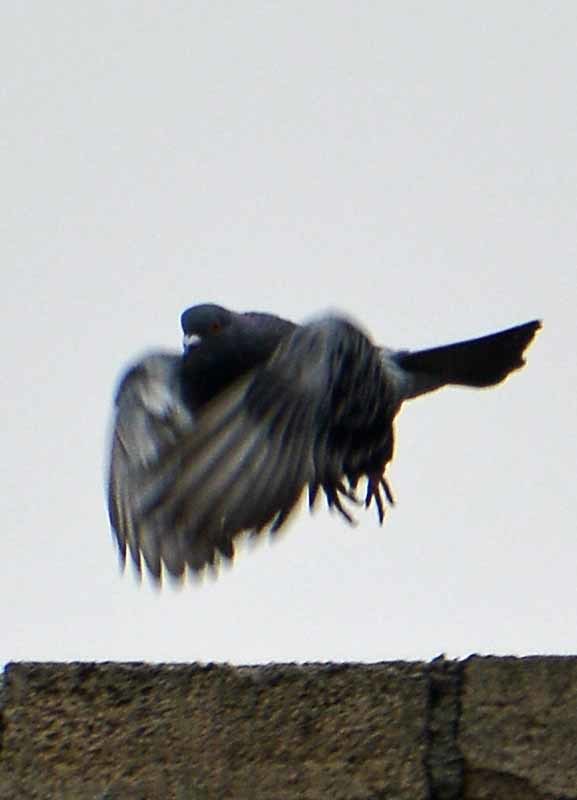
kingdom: Animalia
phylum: Chordata
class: Aves
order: Columbiformes
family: Columbidae
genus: Columba
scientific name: Columba livia
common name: Rock pigeon
